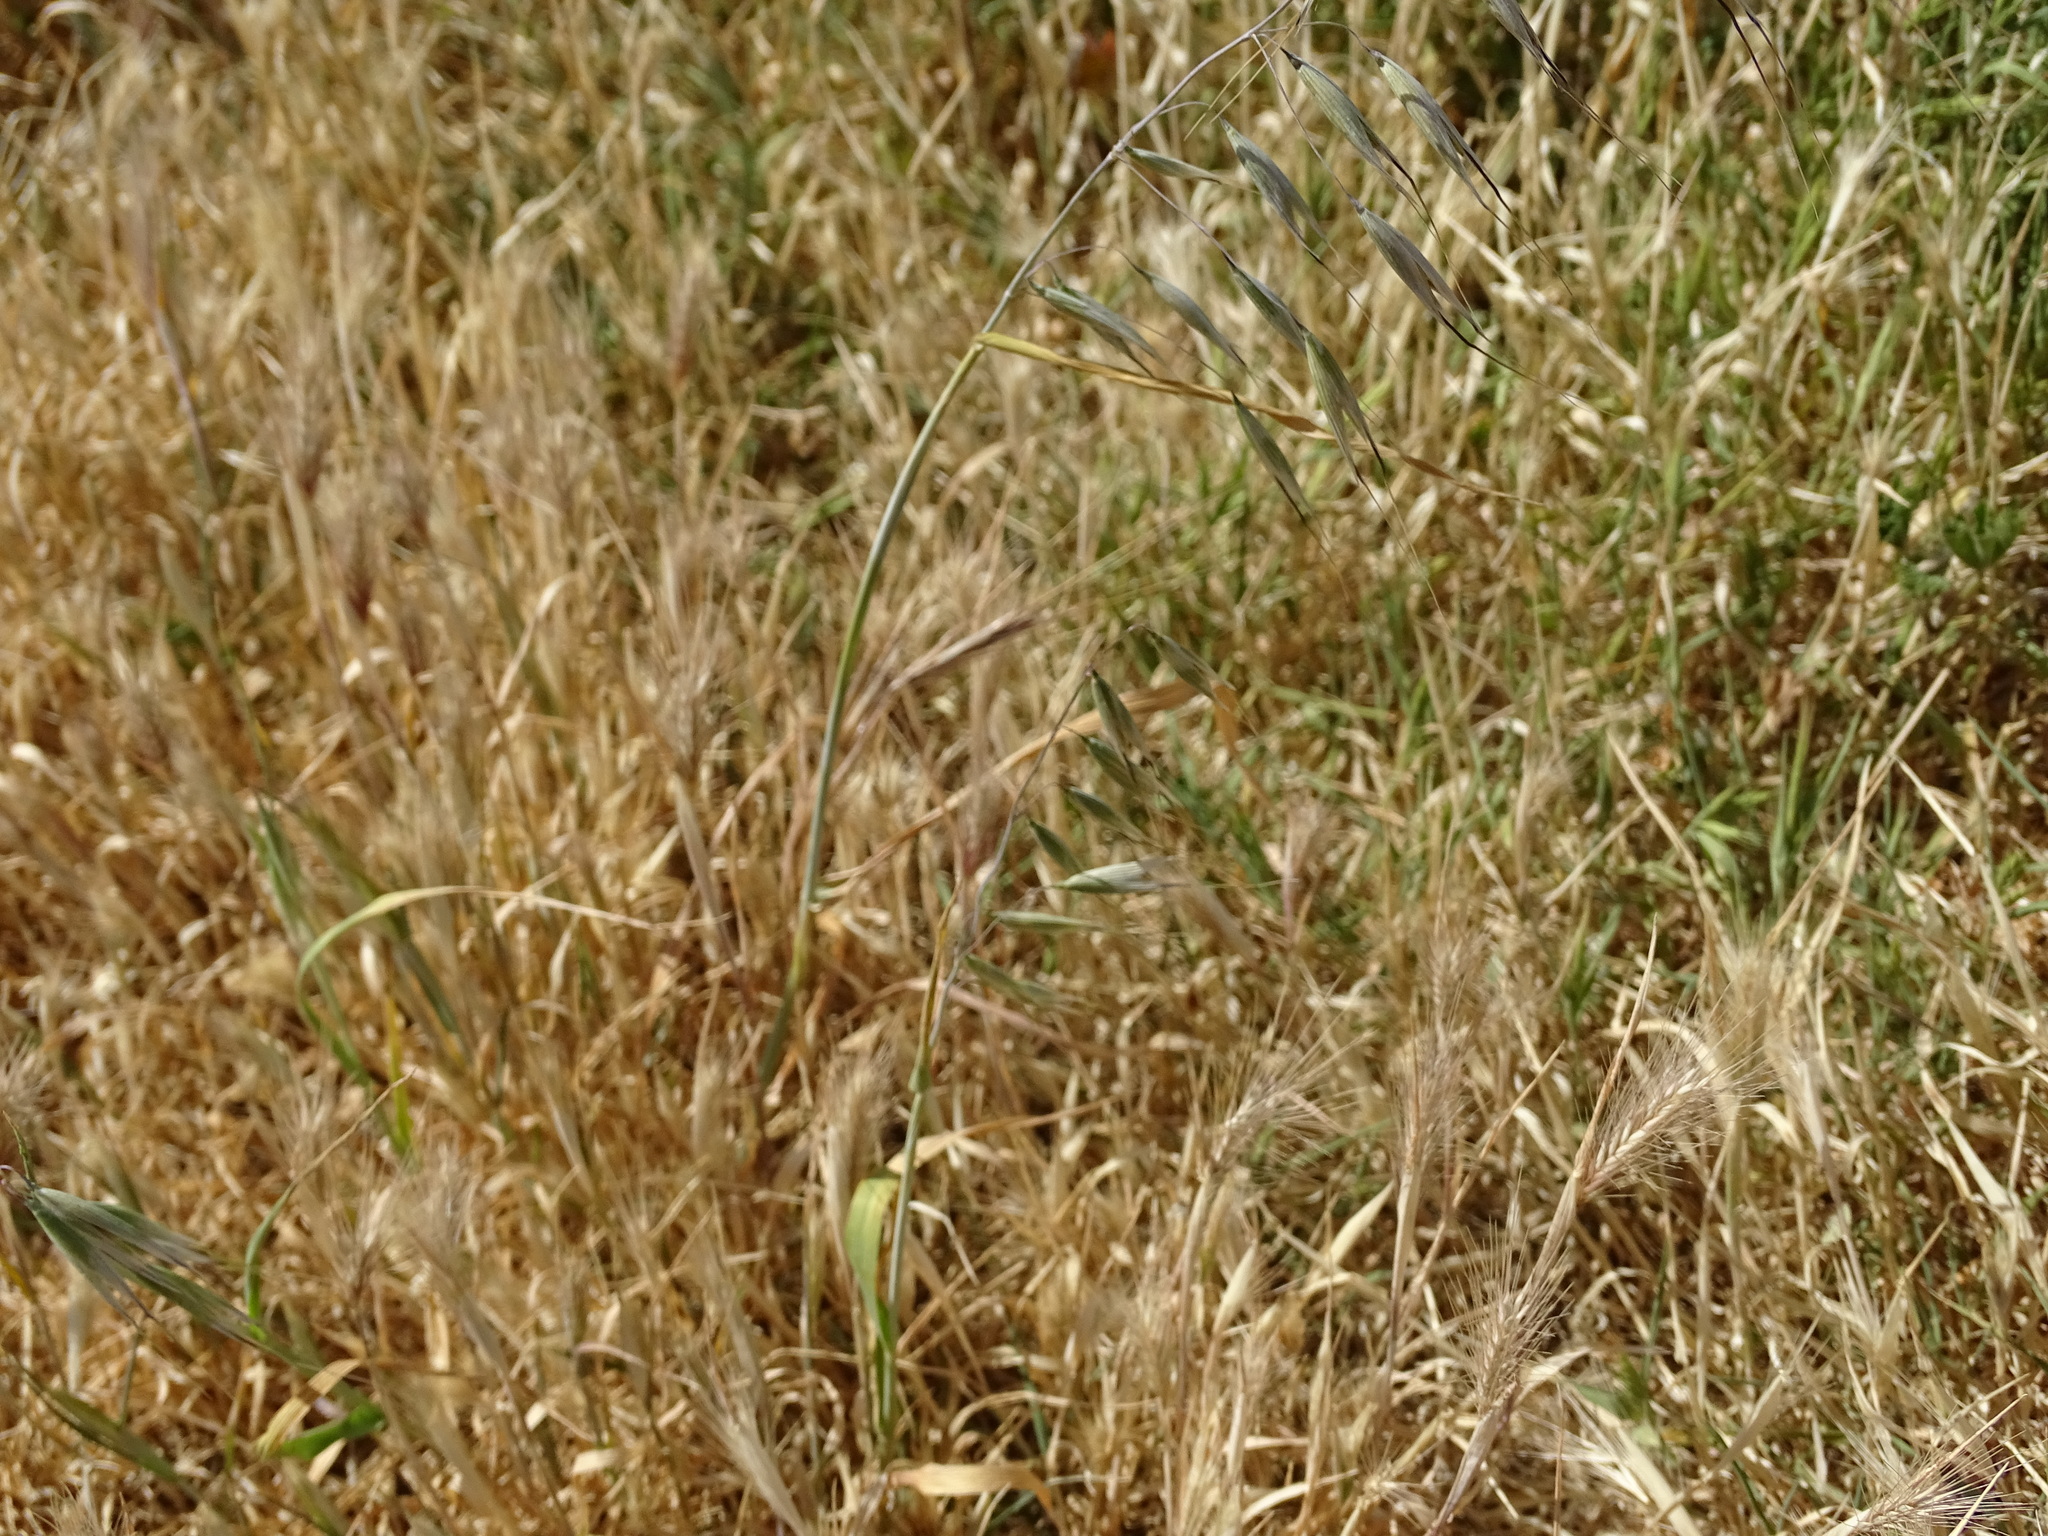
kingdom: Plantae
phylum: Tracheophyta
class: Liliopsida
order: Poales
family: Poaceae
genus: Avena
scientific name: Avena fatua
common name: Wild oat
